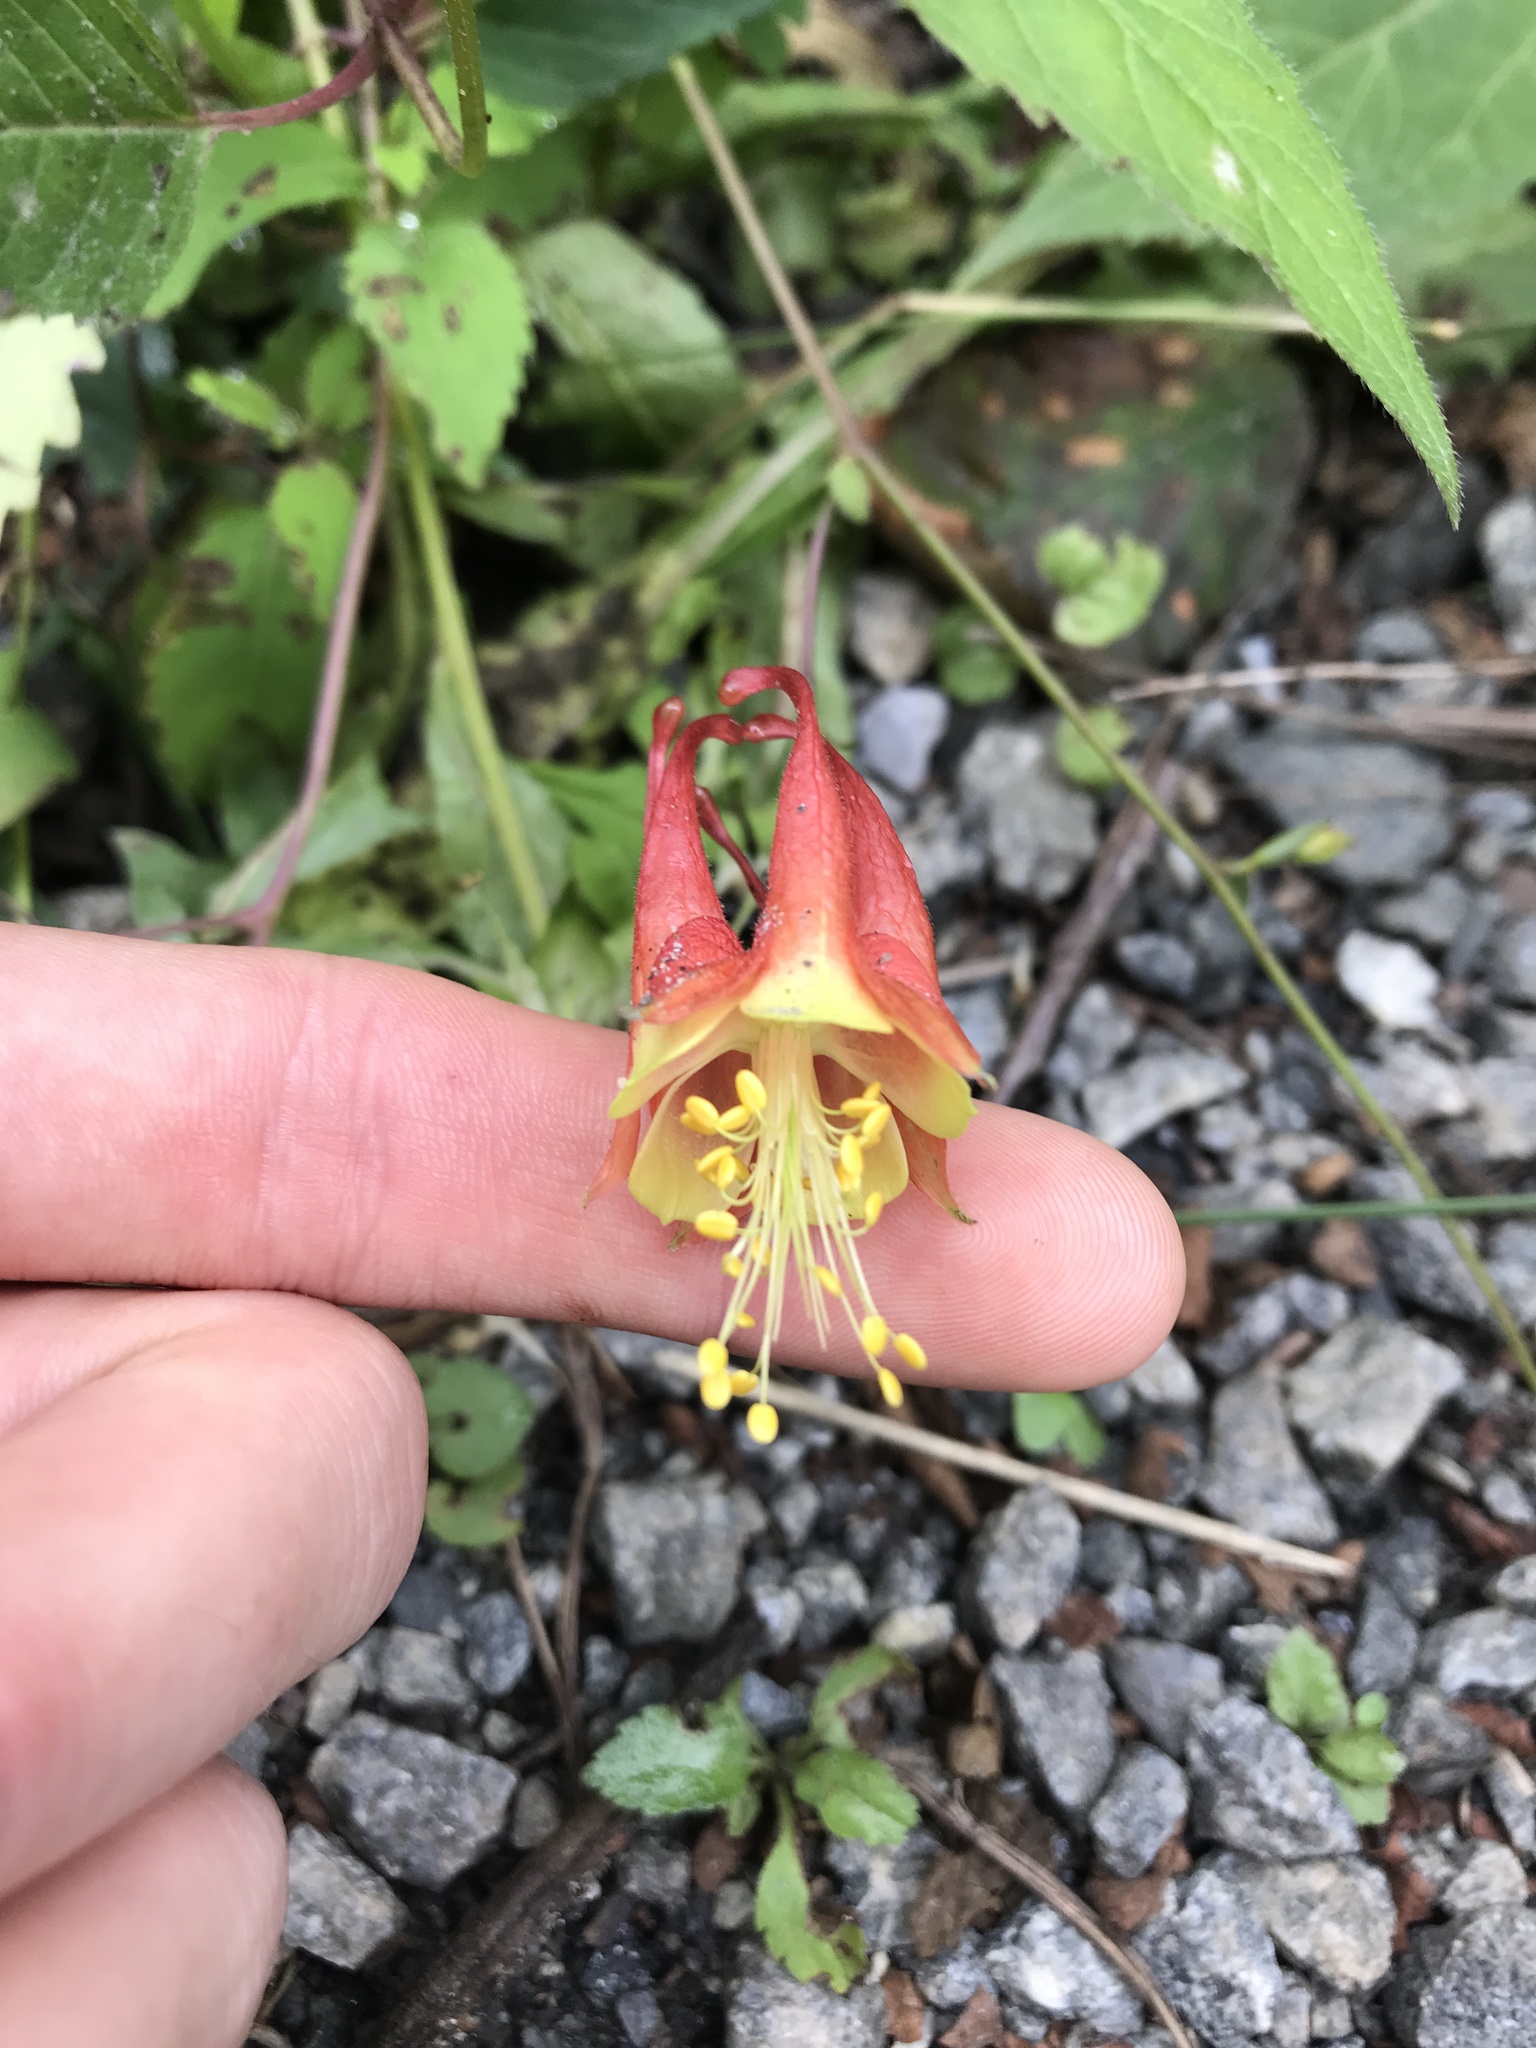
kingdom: Plantae
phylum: Tracheophyta
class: Magnoliopsida
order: Ranunculales
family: Ranunculaceae
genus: Aquilegia
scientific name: Aquilegia canadensis
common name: American columbine
